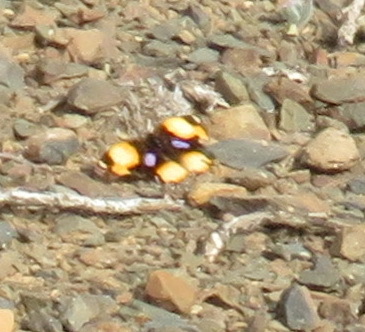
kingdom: Animalia
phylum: Arthropoda
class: Insecta
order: Lepidoptera
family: Nymphalidae
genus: Junonia
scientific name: Junonia hierta
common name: Yellow pansy
